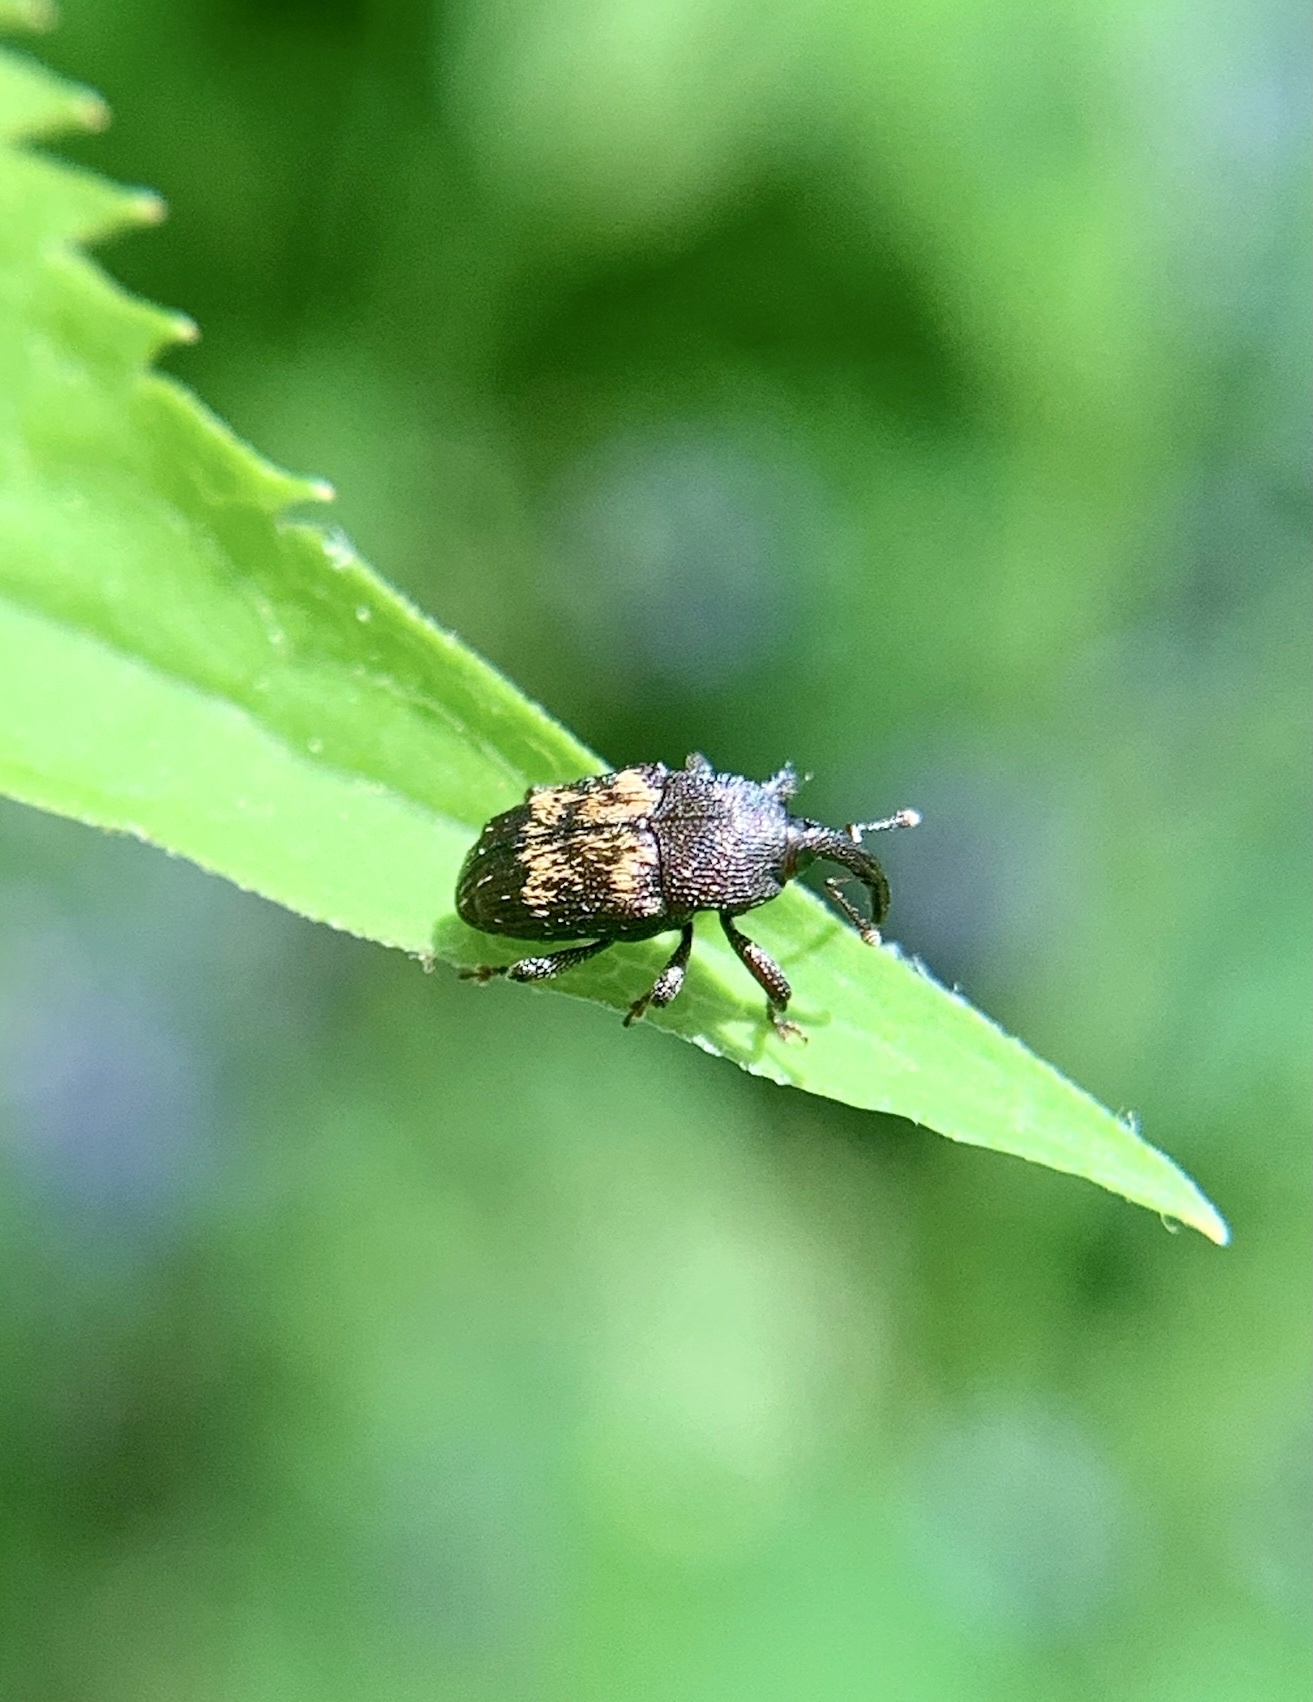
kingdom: Animalia
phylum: Arthropoda
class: Insecta
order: Coleoptera
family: Curculionidae
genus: Glyptobaris
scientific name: Glyptobaris lecontei
